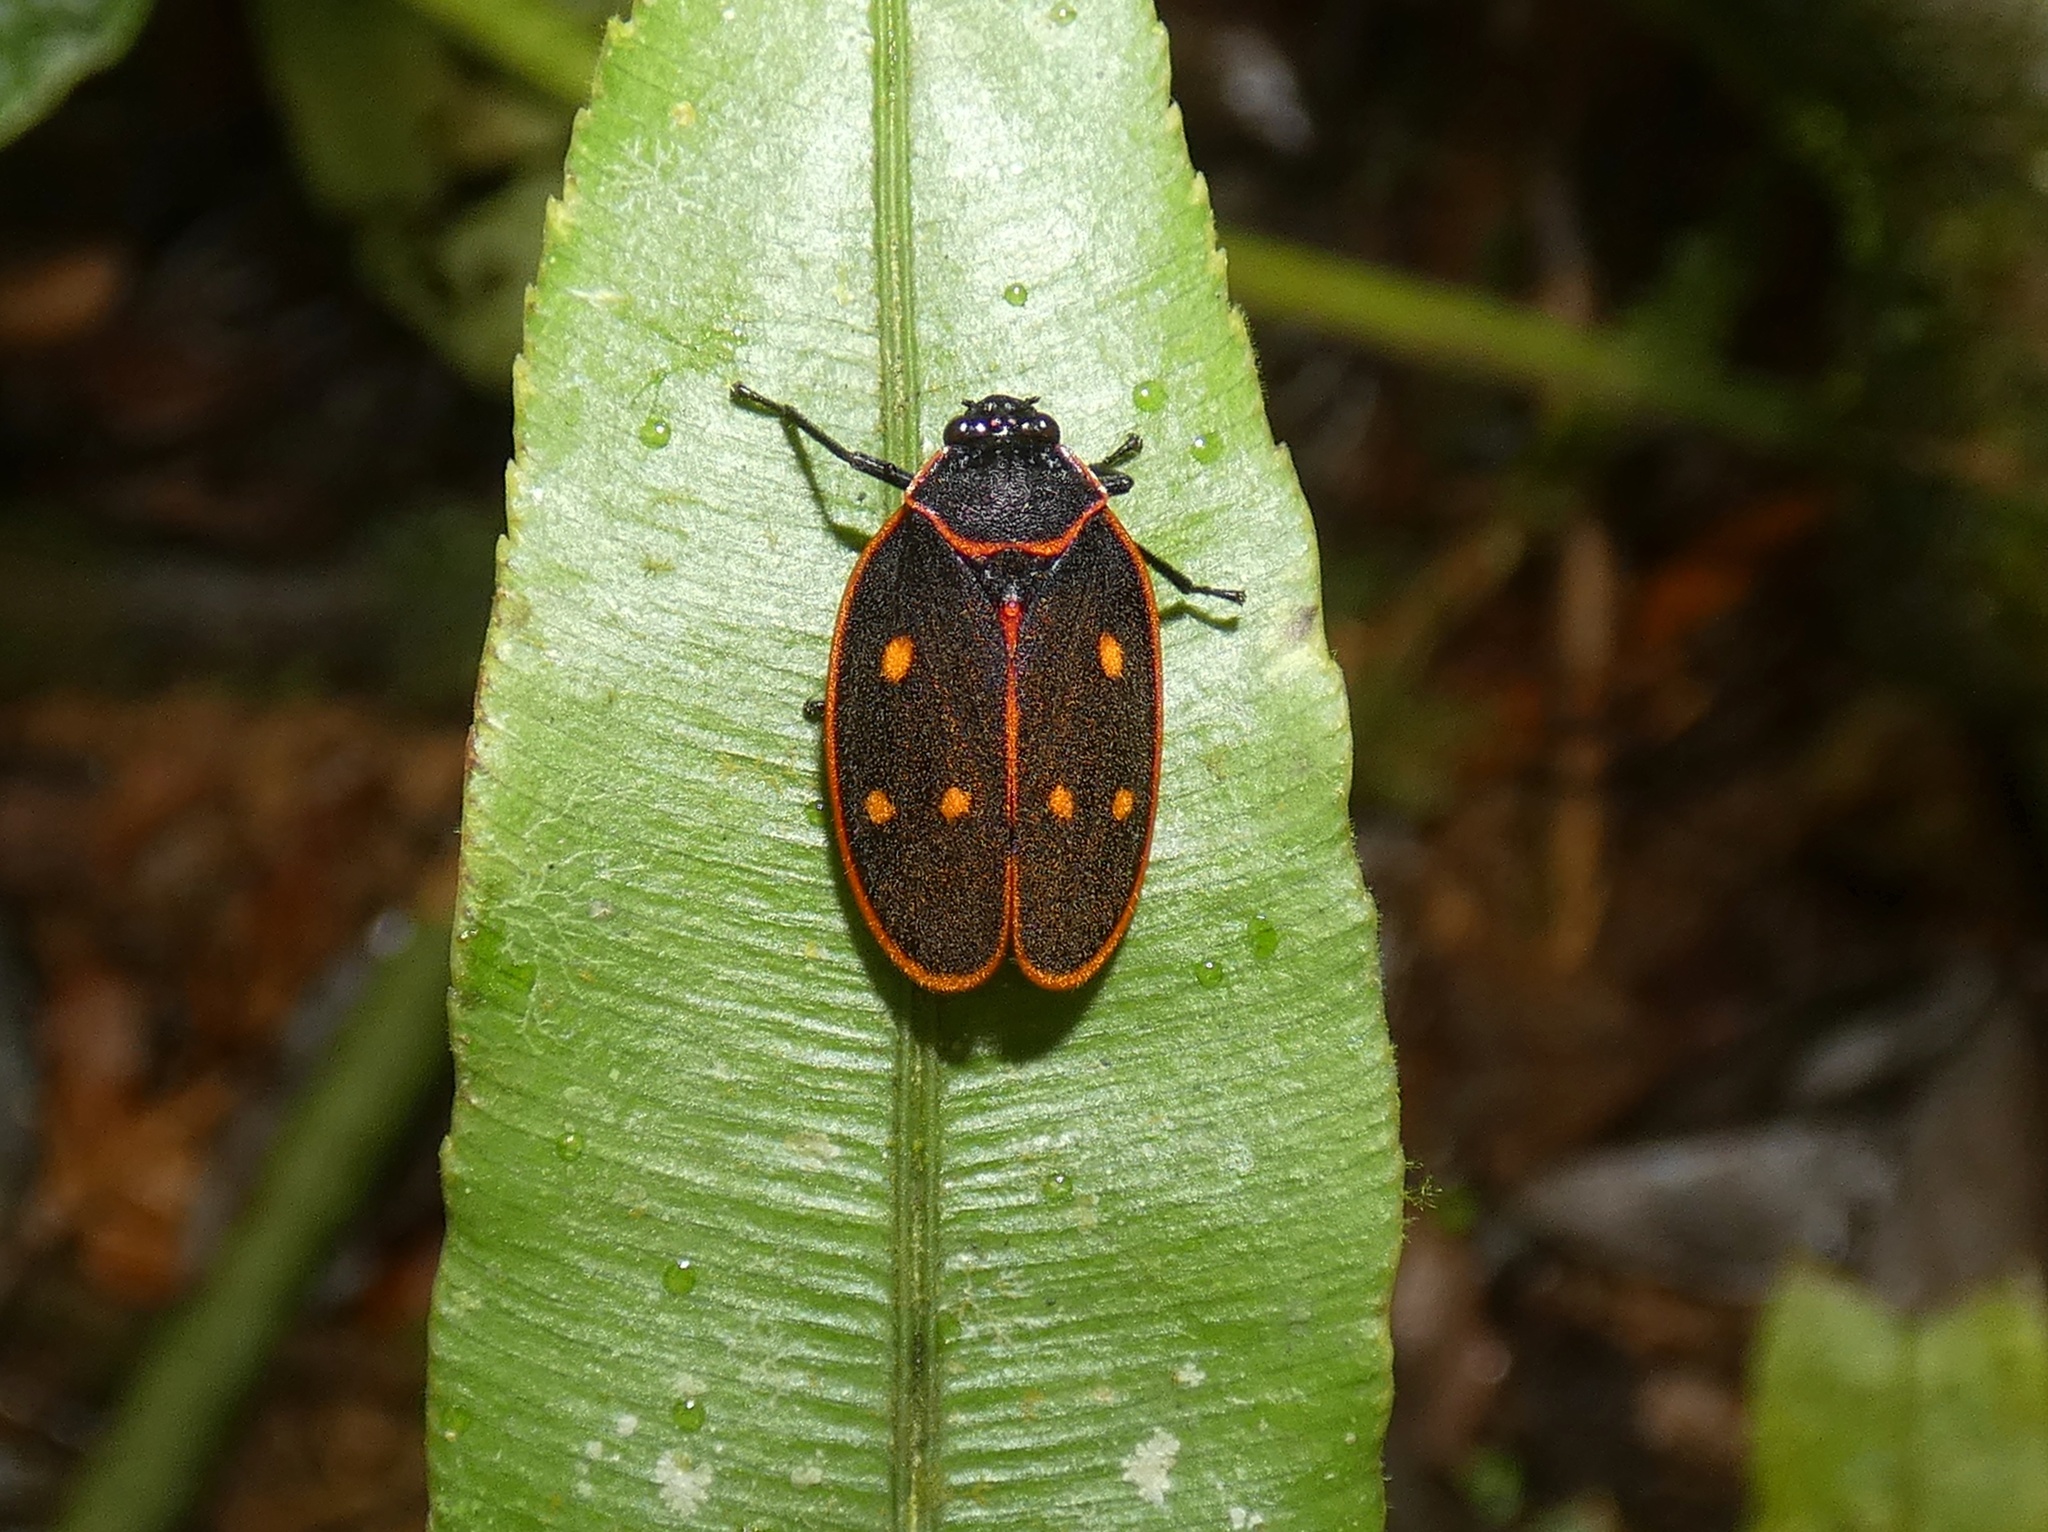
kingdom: Animalia
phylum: Arthropoda
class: Insecta
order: Hemiptera
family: Cercopidae
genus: Iphirhina
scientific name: Iphirhina perfecta
